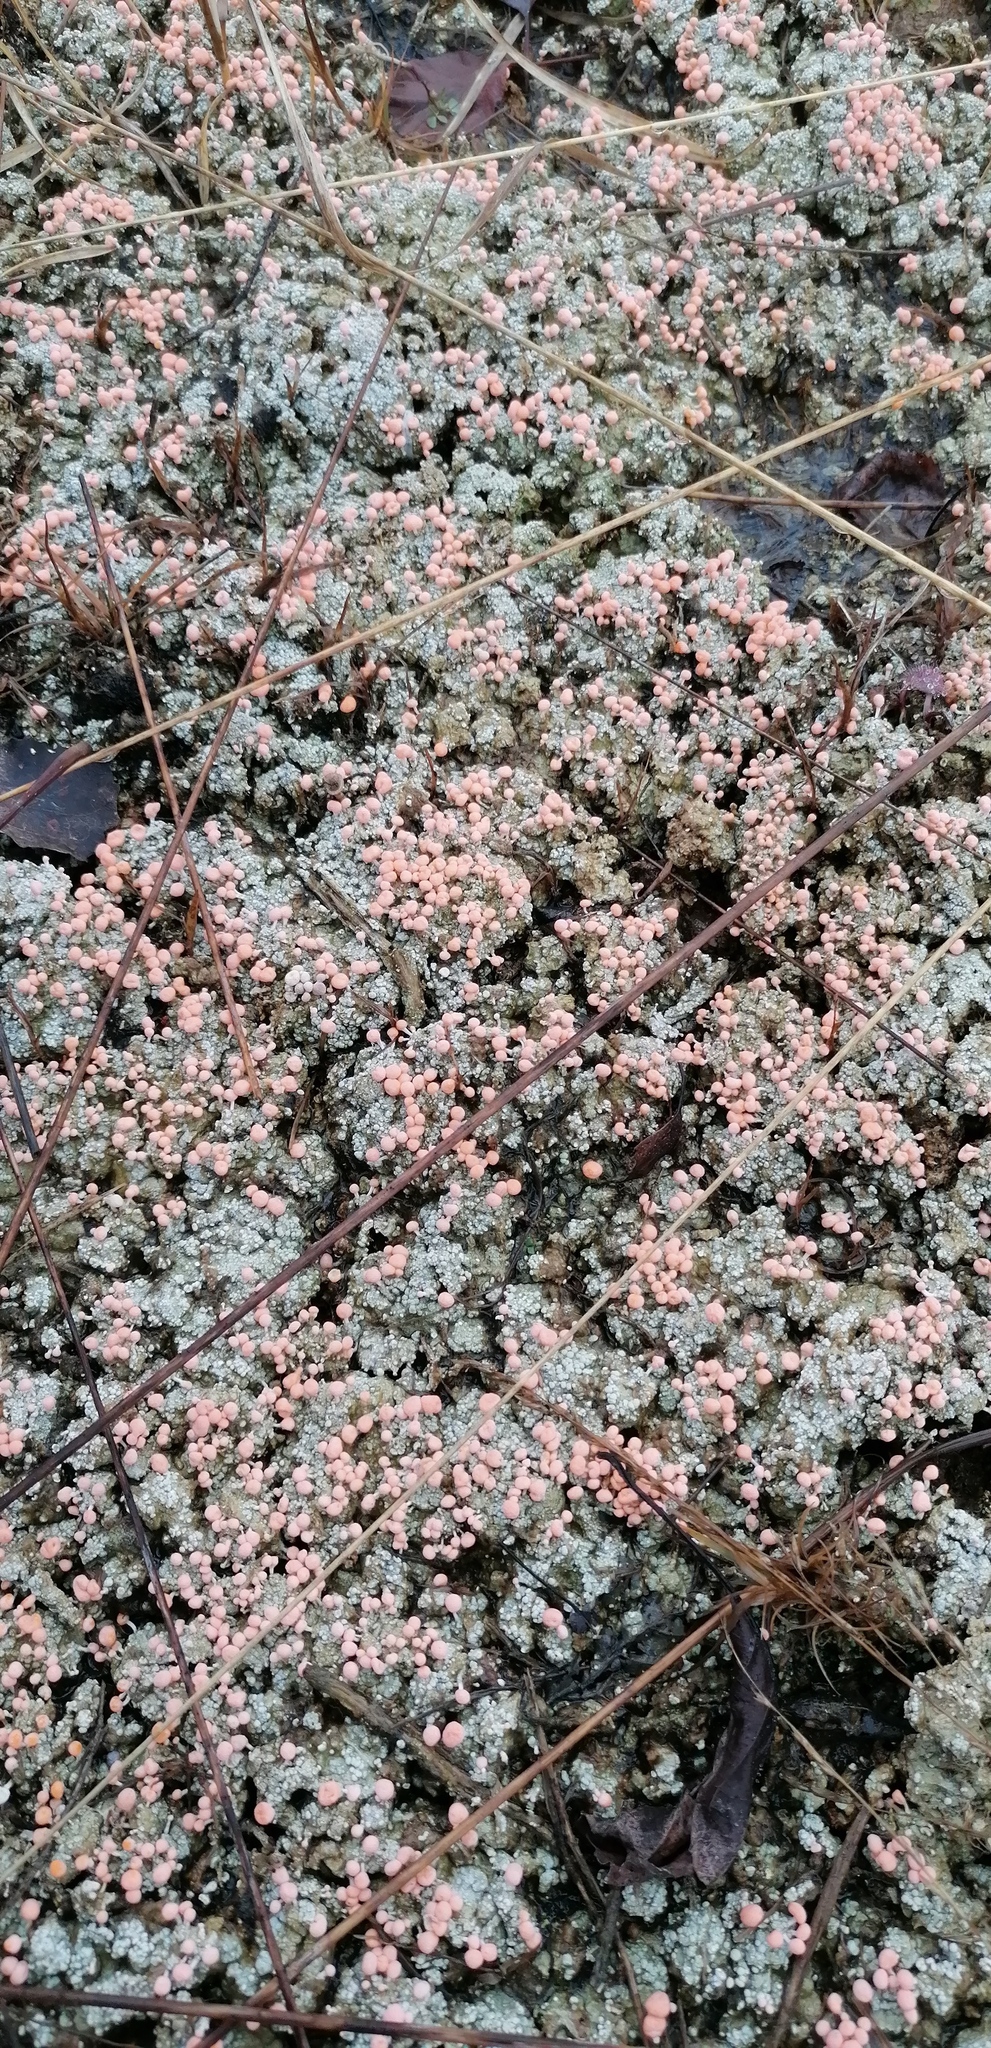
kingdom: Fungi
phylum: Ascomycota
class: Lecanoromycetes
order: Pertusariales
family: Icmadophilaceae
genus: Dibaeis
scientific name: Dibaeis baeomyces
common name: Pink earth lichen
